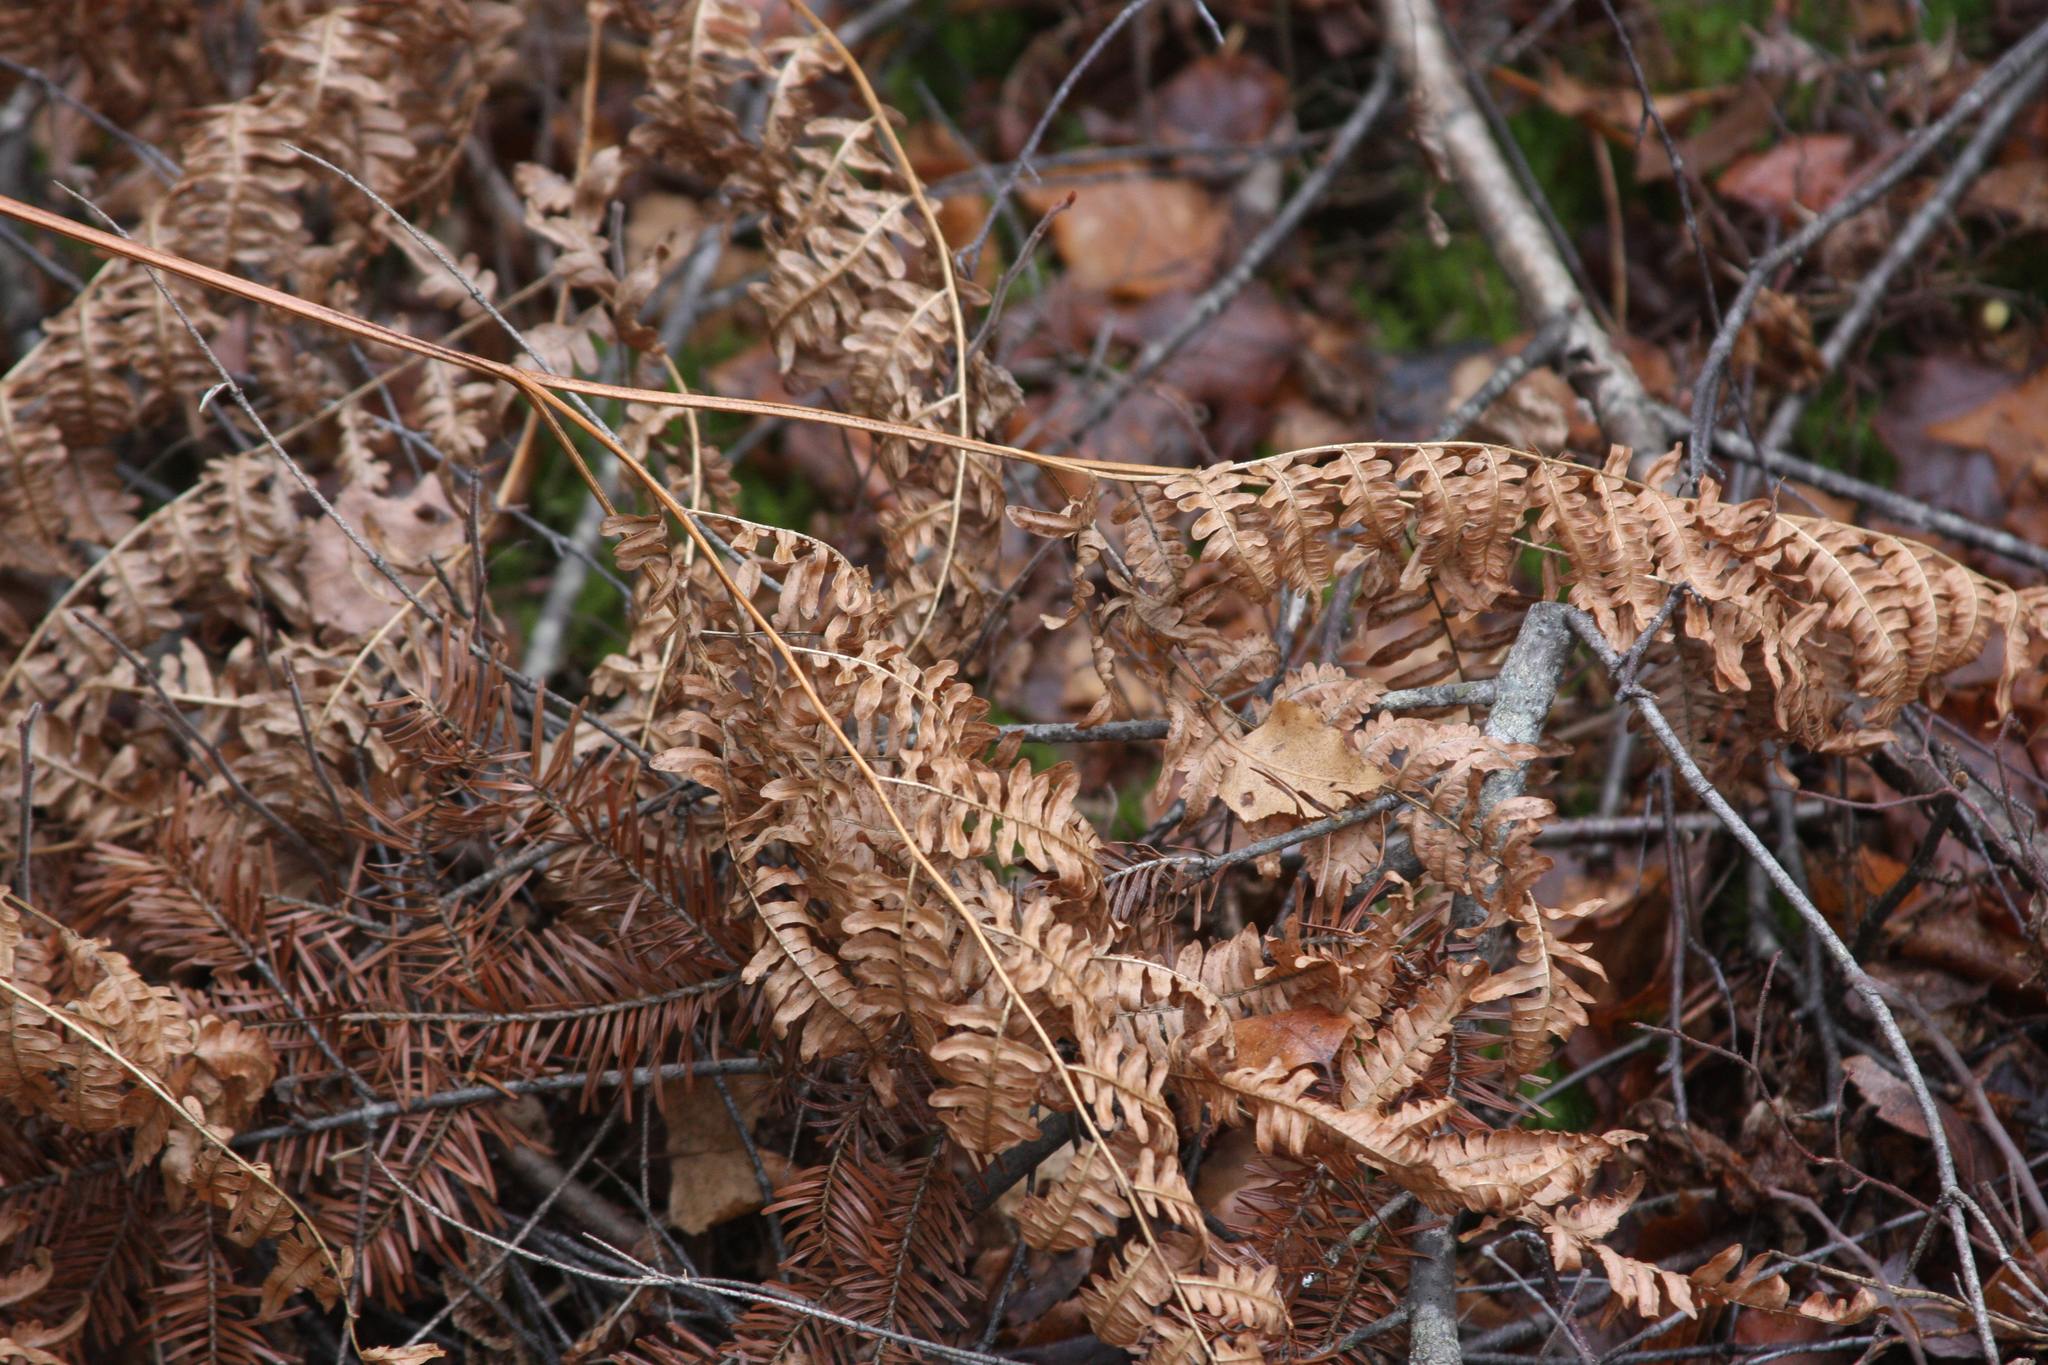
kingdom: Plantae
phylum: Tracheophyta
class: Polypodiopsida
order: Polypodiales
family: Dennstaedtiaceae
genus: Pteridium
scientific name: Pteridium aquilinum
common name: Bracken
